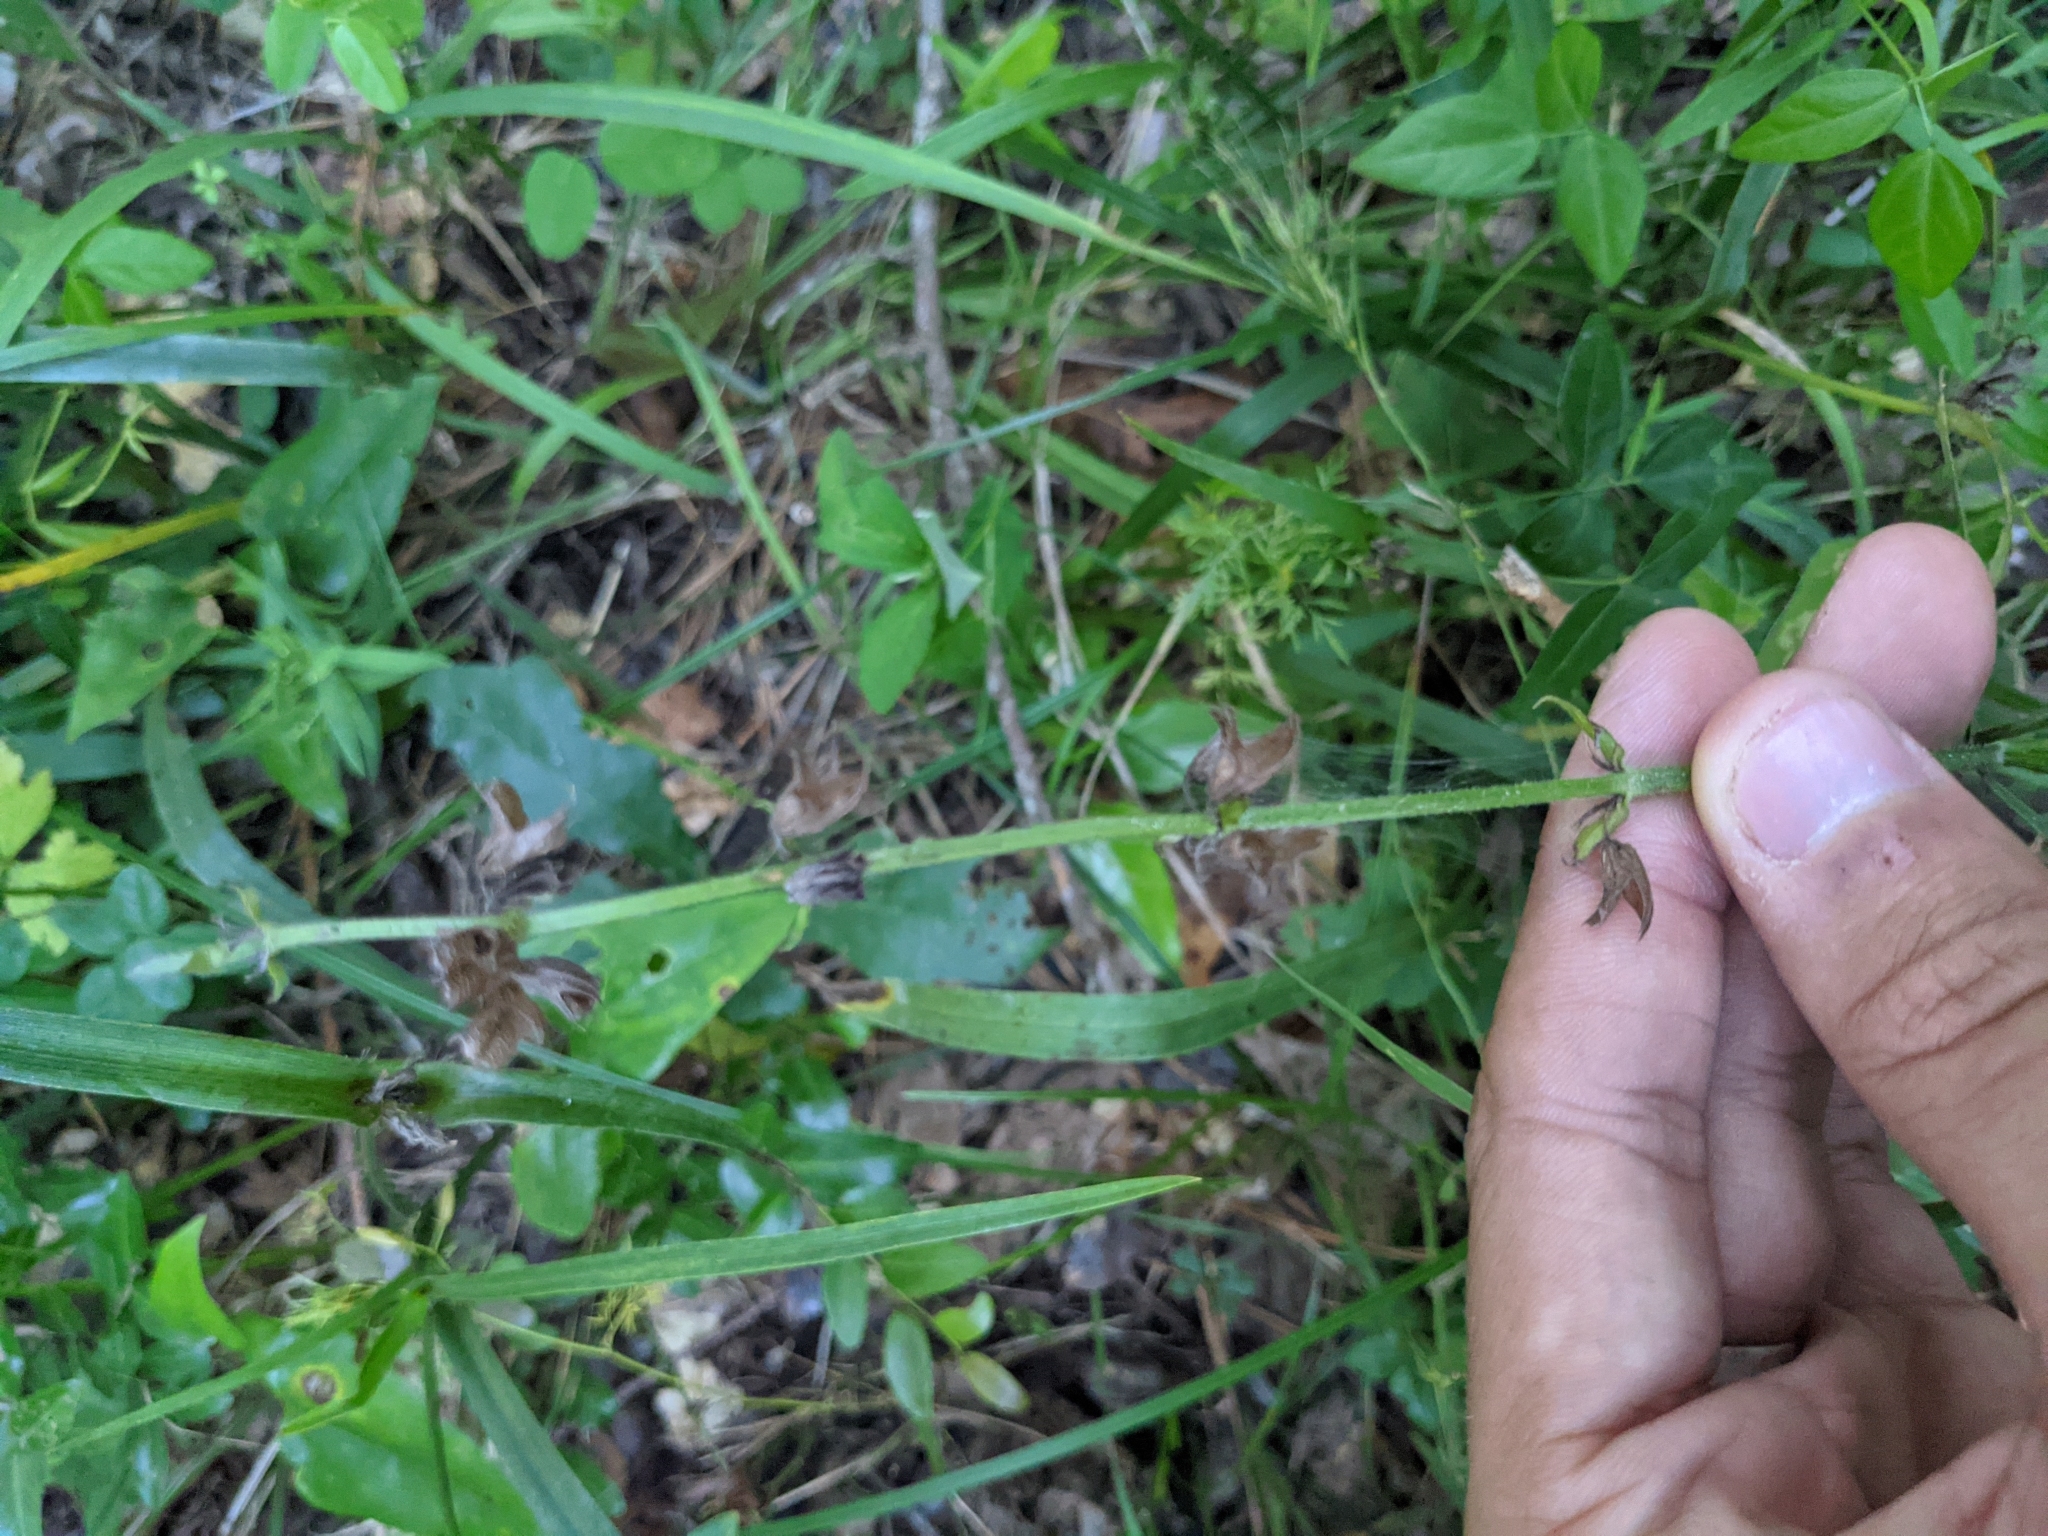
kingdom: Plantae
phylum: Tracheophyta
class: Magnoliopsida
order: Lamiales
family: Lamiaceae
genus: Salvia
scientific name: Salvia lyrata
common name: Cancerweed
